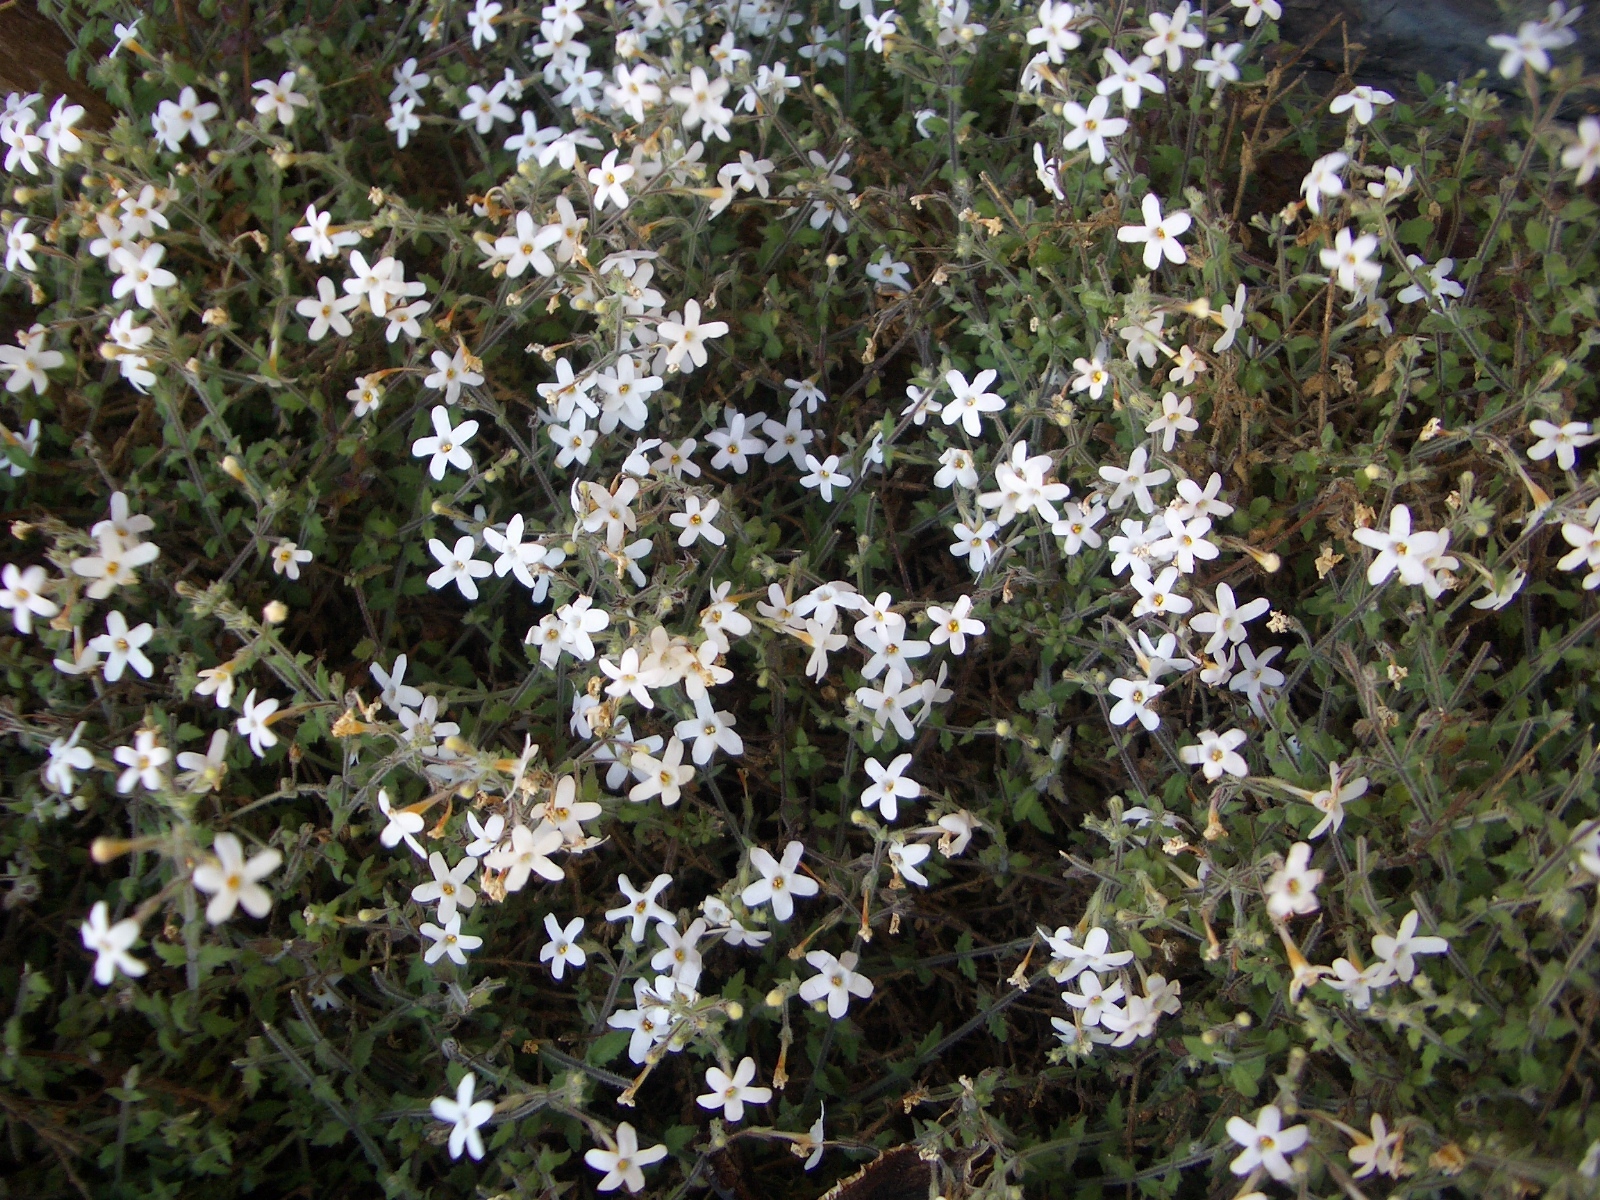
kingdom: Plantae
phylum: Tracheophyta
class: Magnoliopsida
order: Lamiales
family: Scrophulariaceae
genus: Chaenostoma
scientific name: Chaenostoma decipiens
